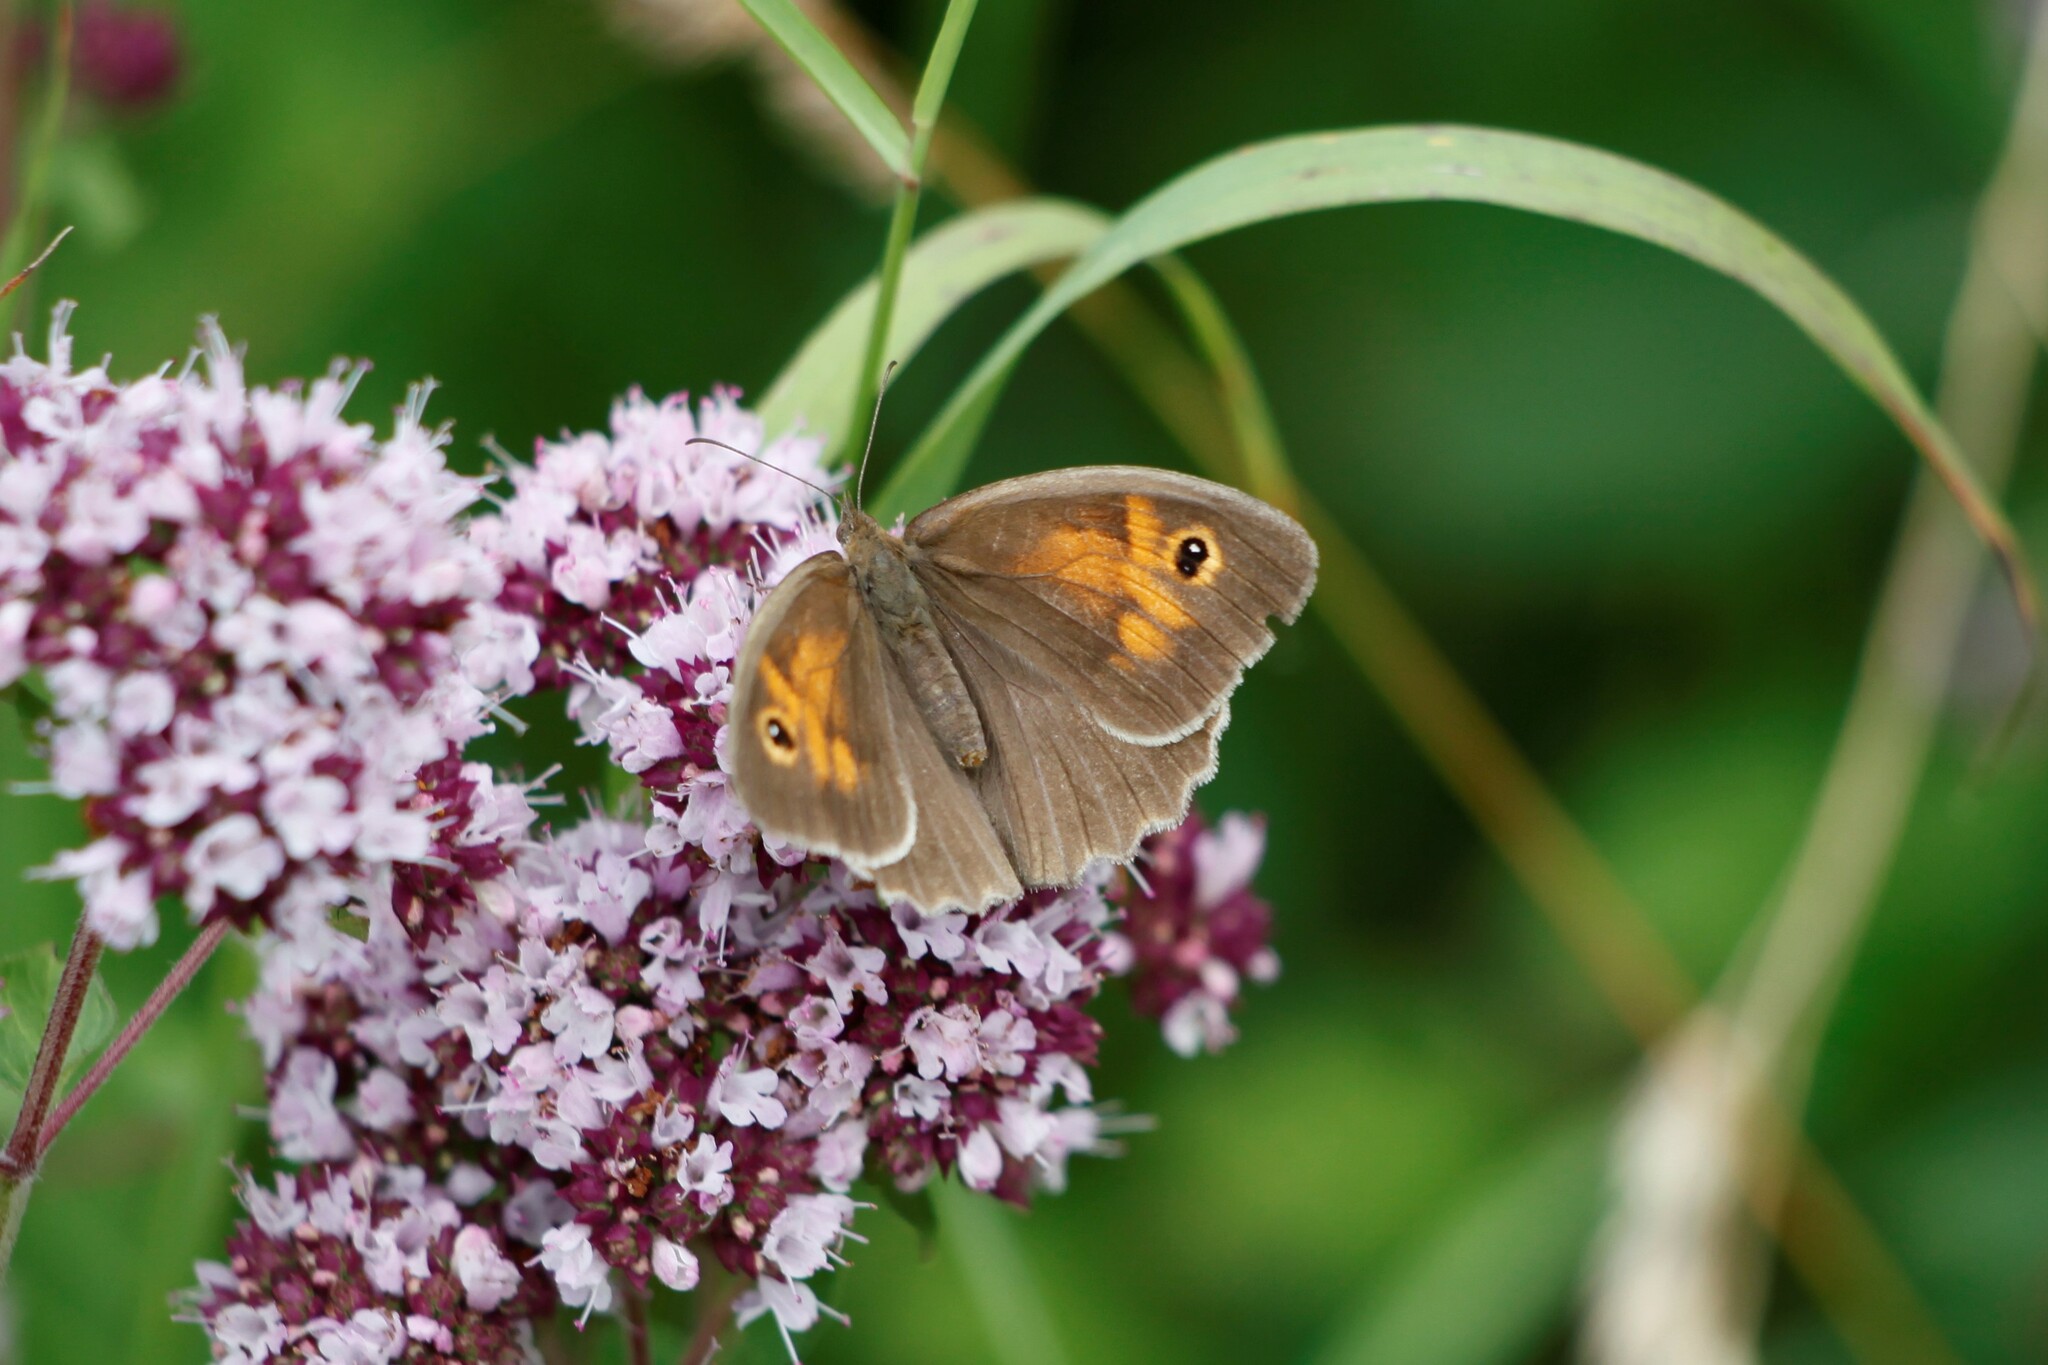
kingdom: Animalia
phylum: Arthropoda
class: Insecta
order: Lepidoptera
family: Nymphalidae
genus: Maniola
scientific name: Maniola jurtina
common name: Meadow brown
